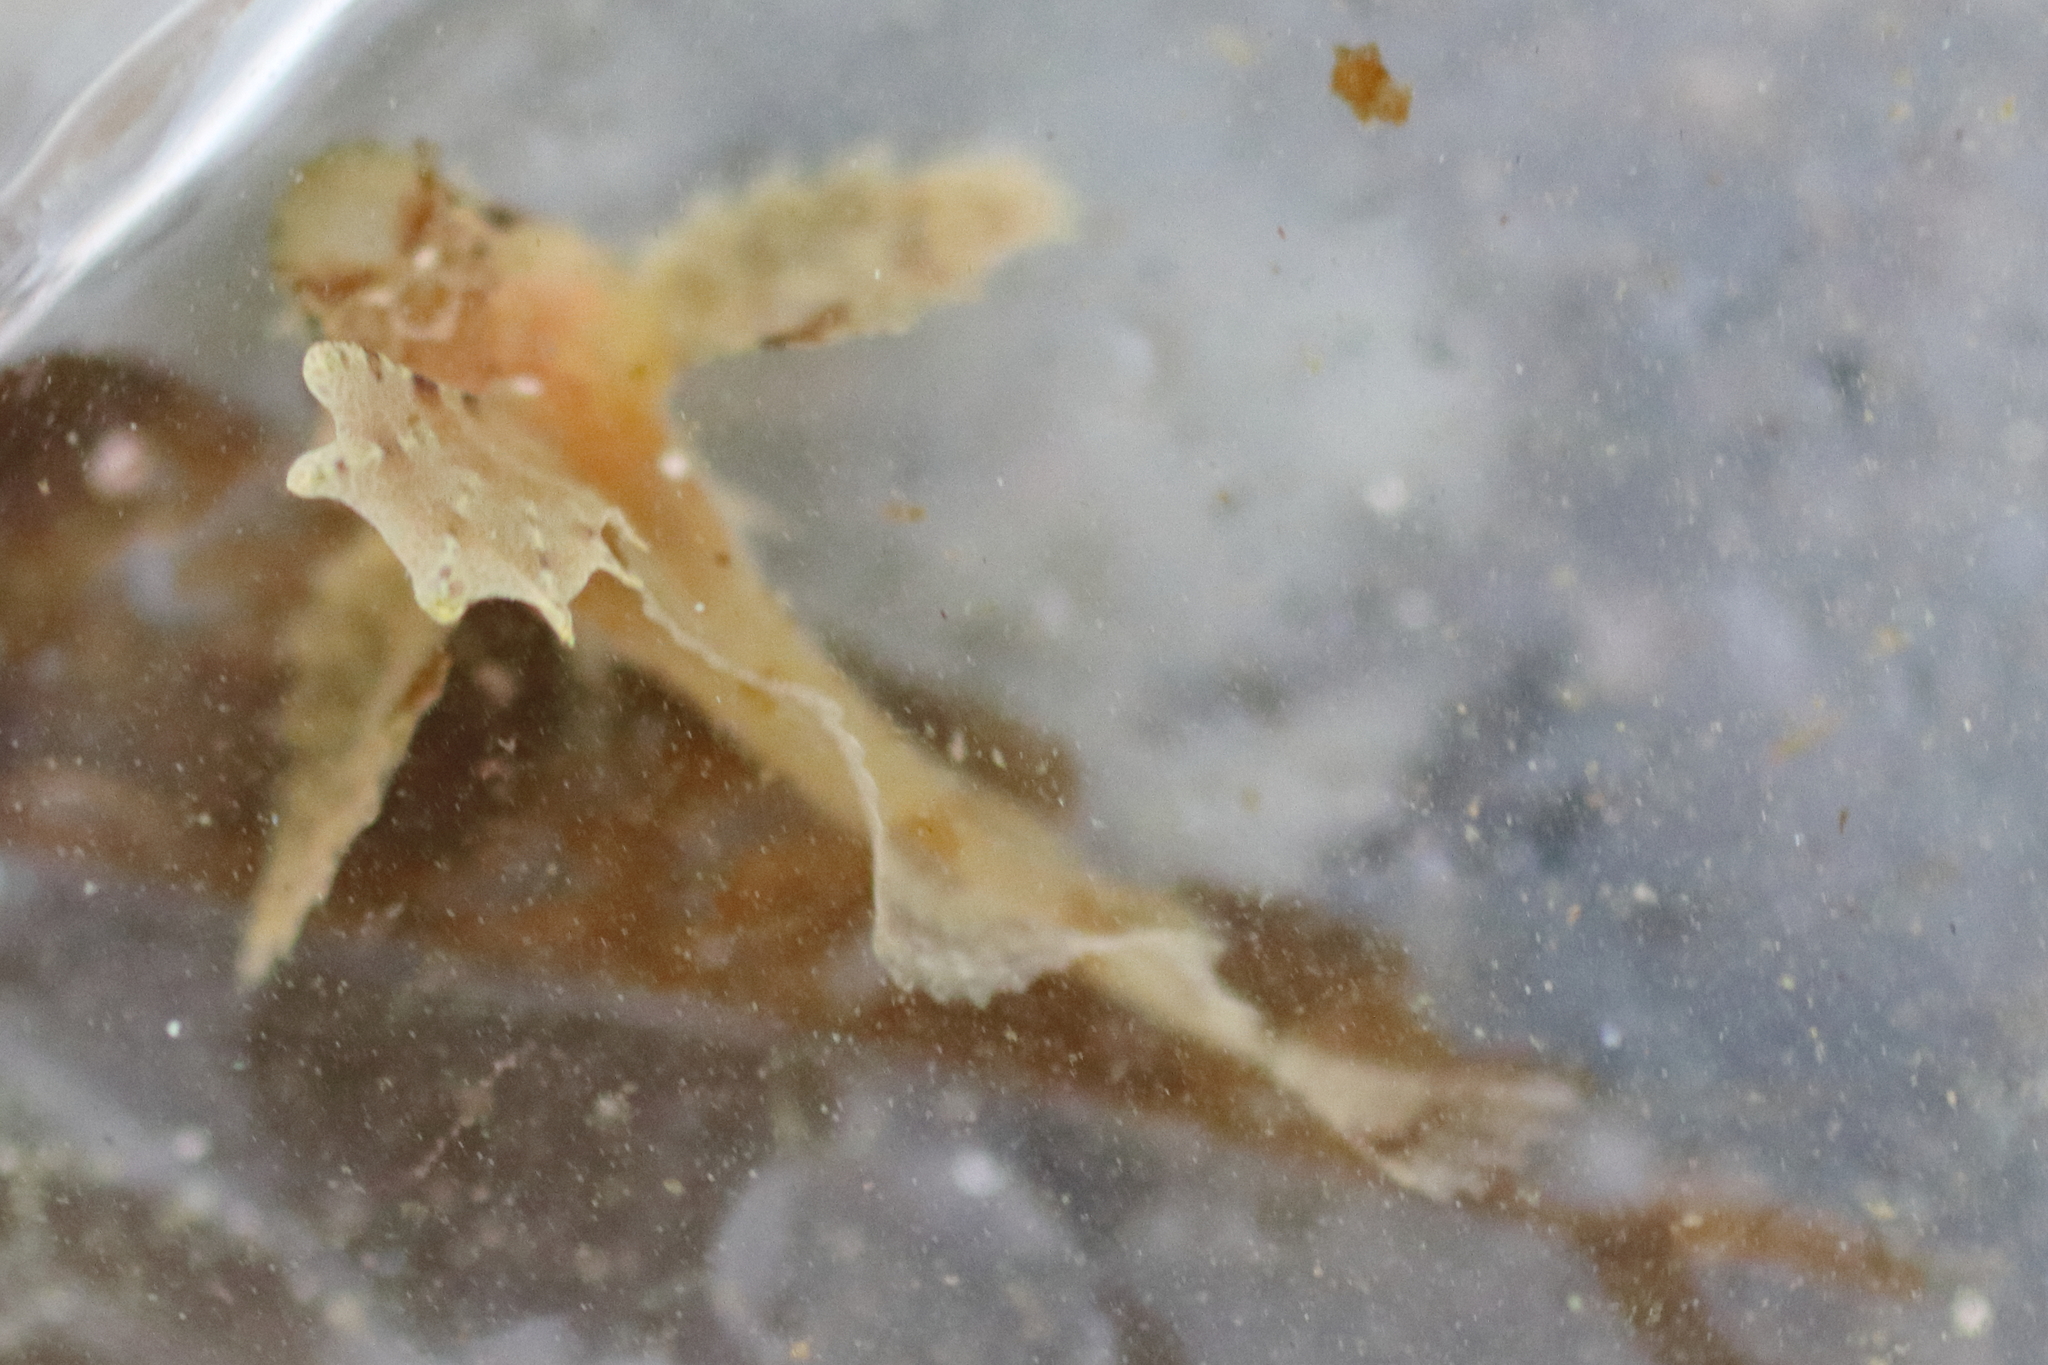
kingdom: Animalia
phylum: Chordata
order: Scorpaeniformes
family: Hemitripteridae
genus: Nautichthys
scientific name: Nautichthys oculofasciatus
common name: Sailfin sculpin
